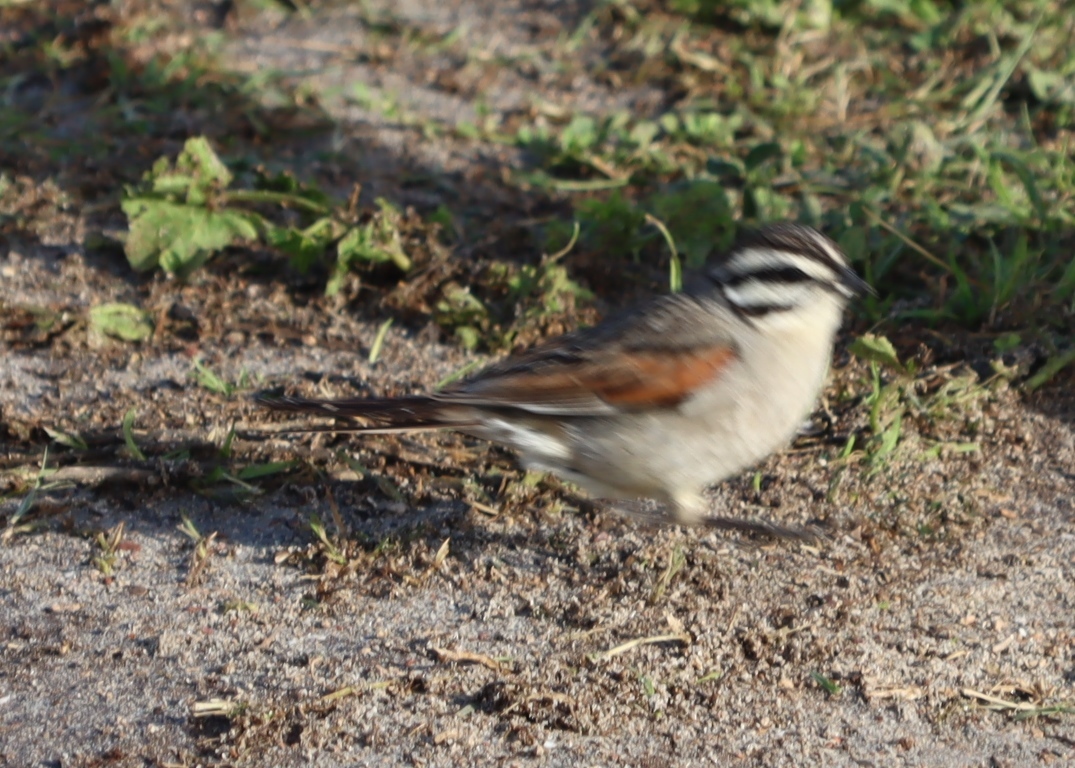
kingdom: Animalia
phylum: Chordata
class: Aves
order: Passeriformes
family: Emberizidae
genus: Emberiza
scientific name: Emberiza capensis
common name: Cape bunting
